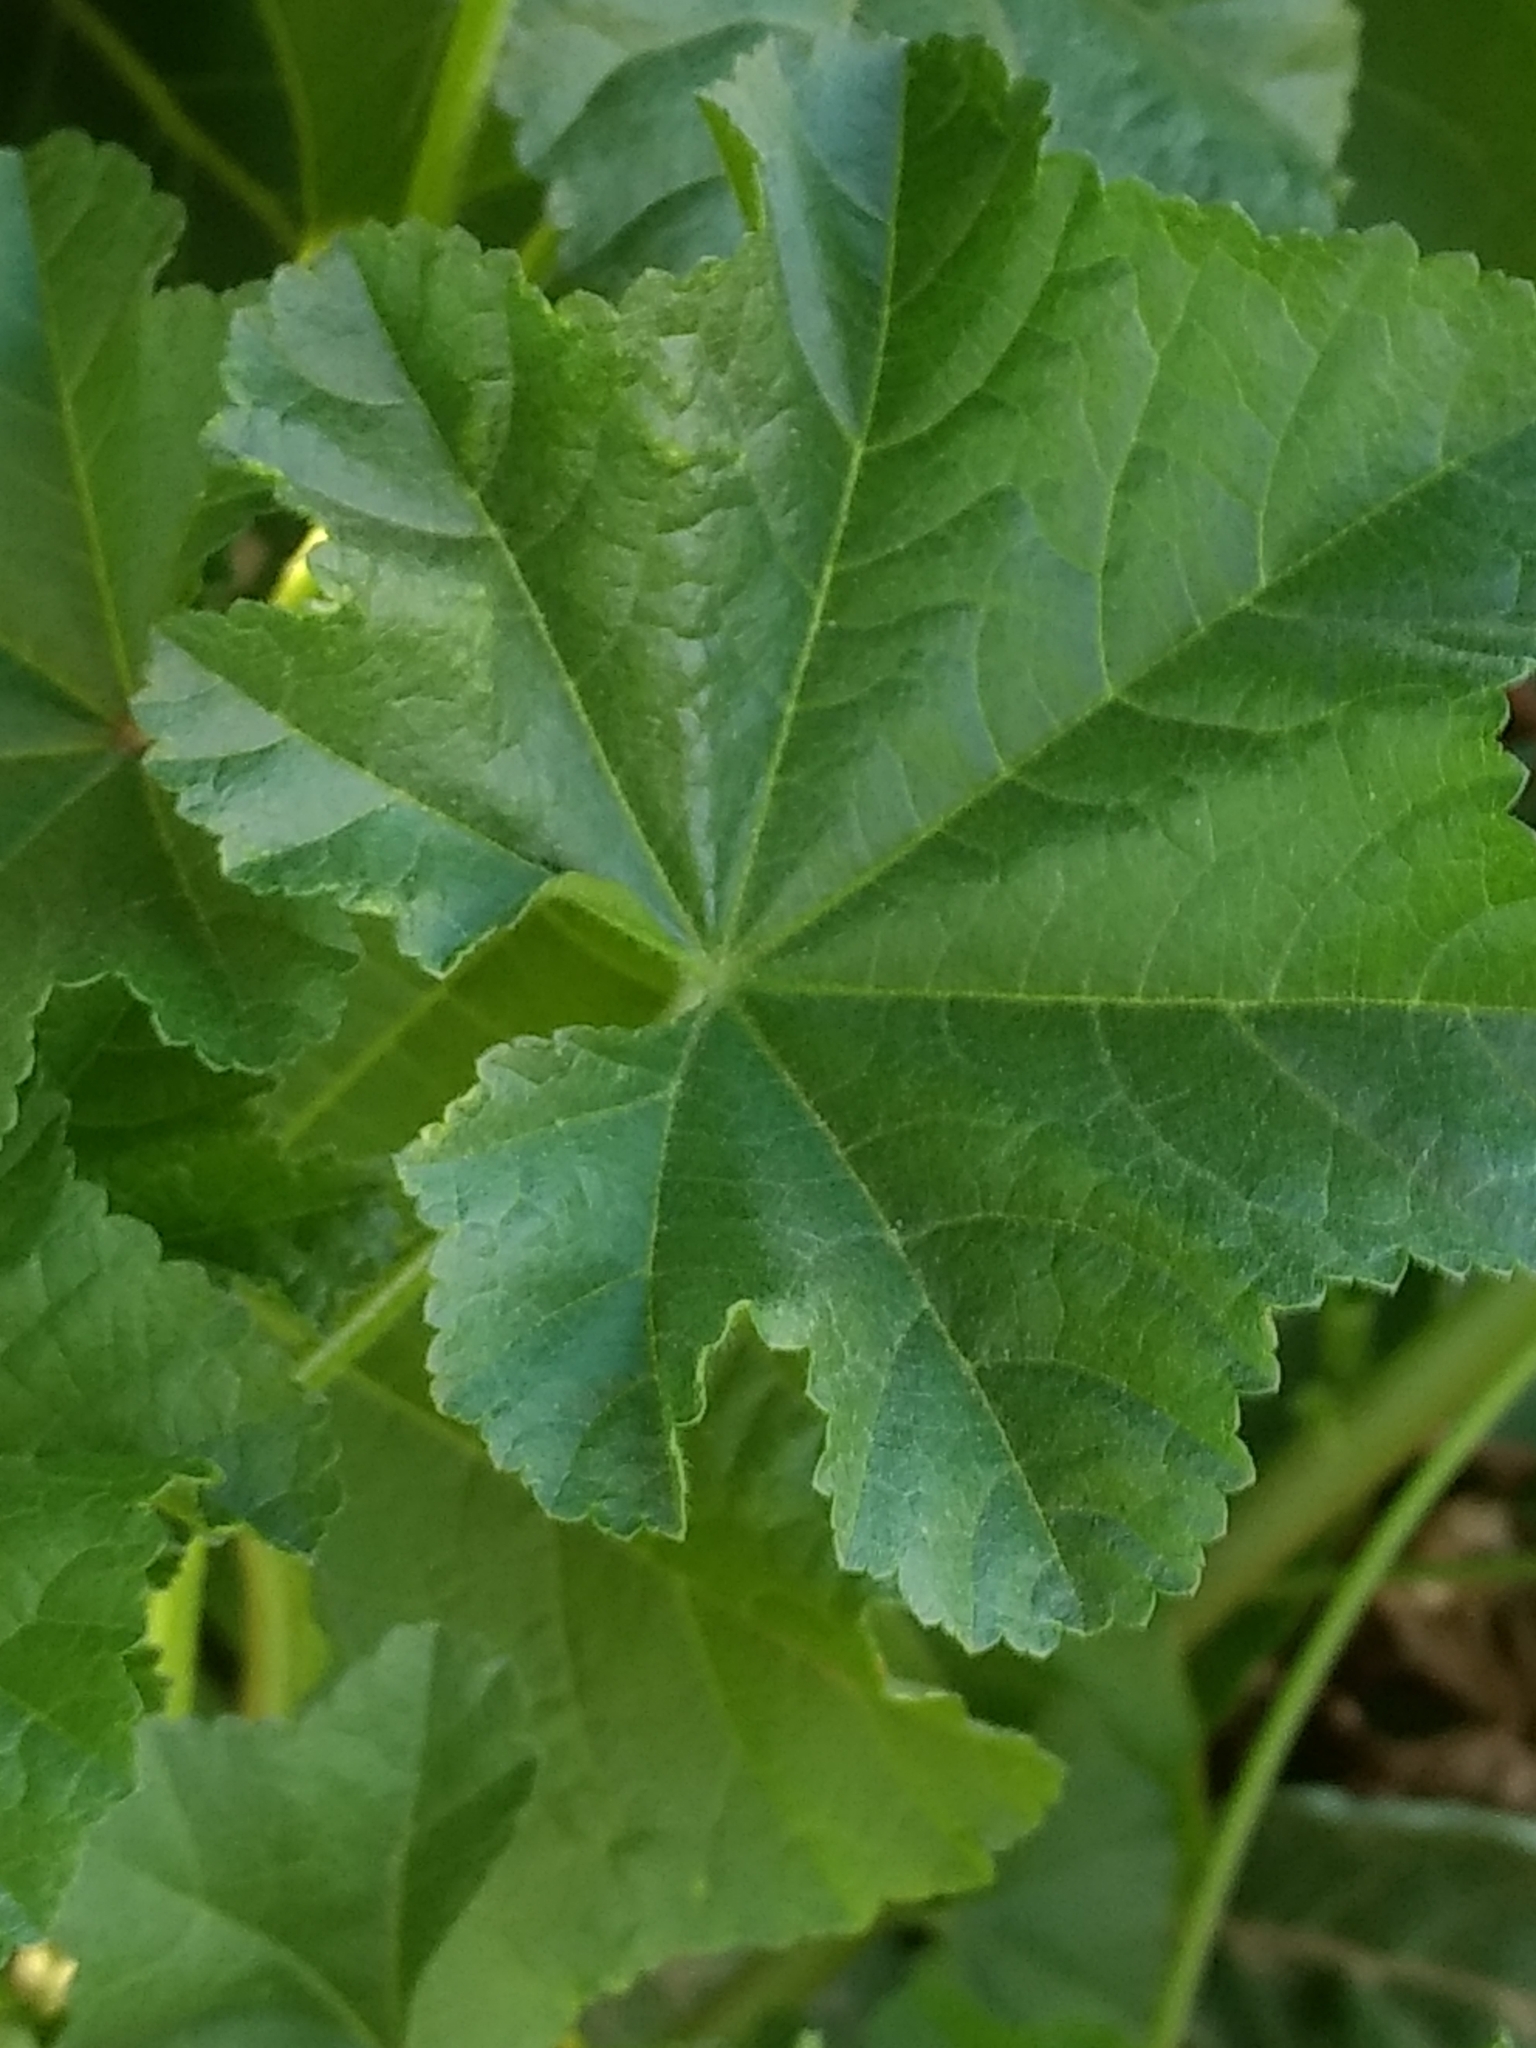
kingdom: Plantae
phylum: Tracheophyta
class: Magnoliopsida
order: Malvales
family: Malvaceae
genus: Malva
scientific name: Malva parviflora
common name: Least mallow
